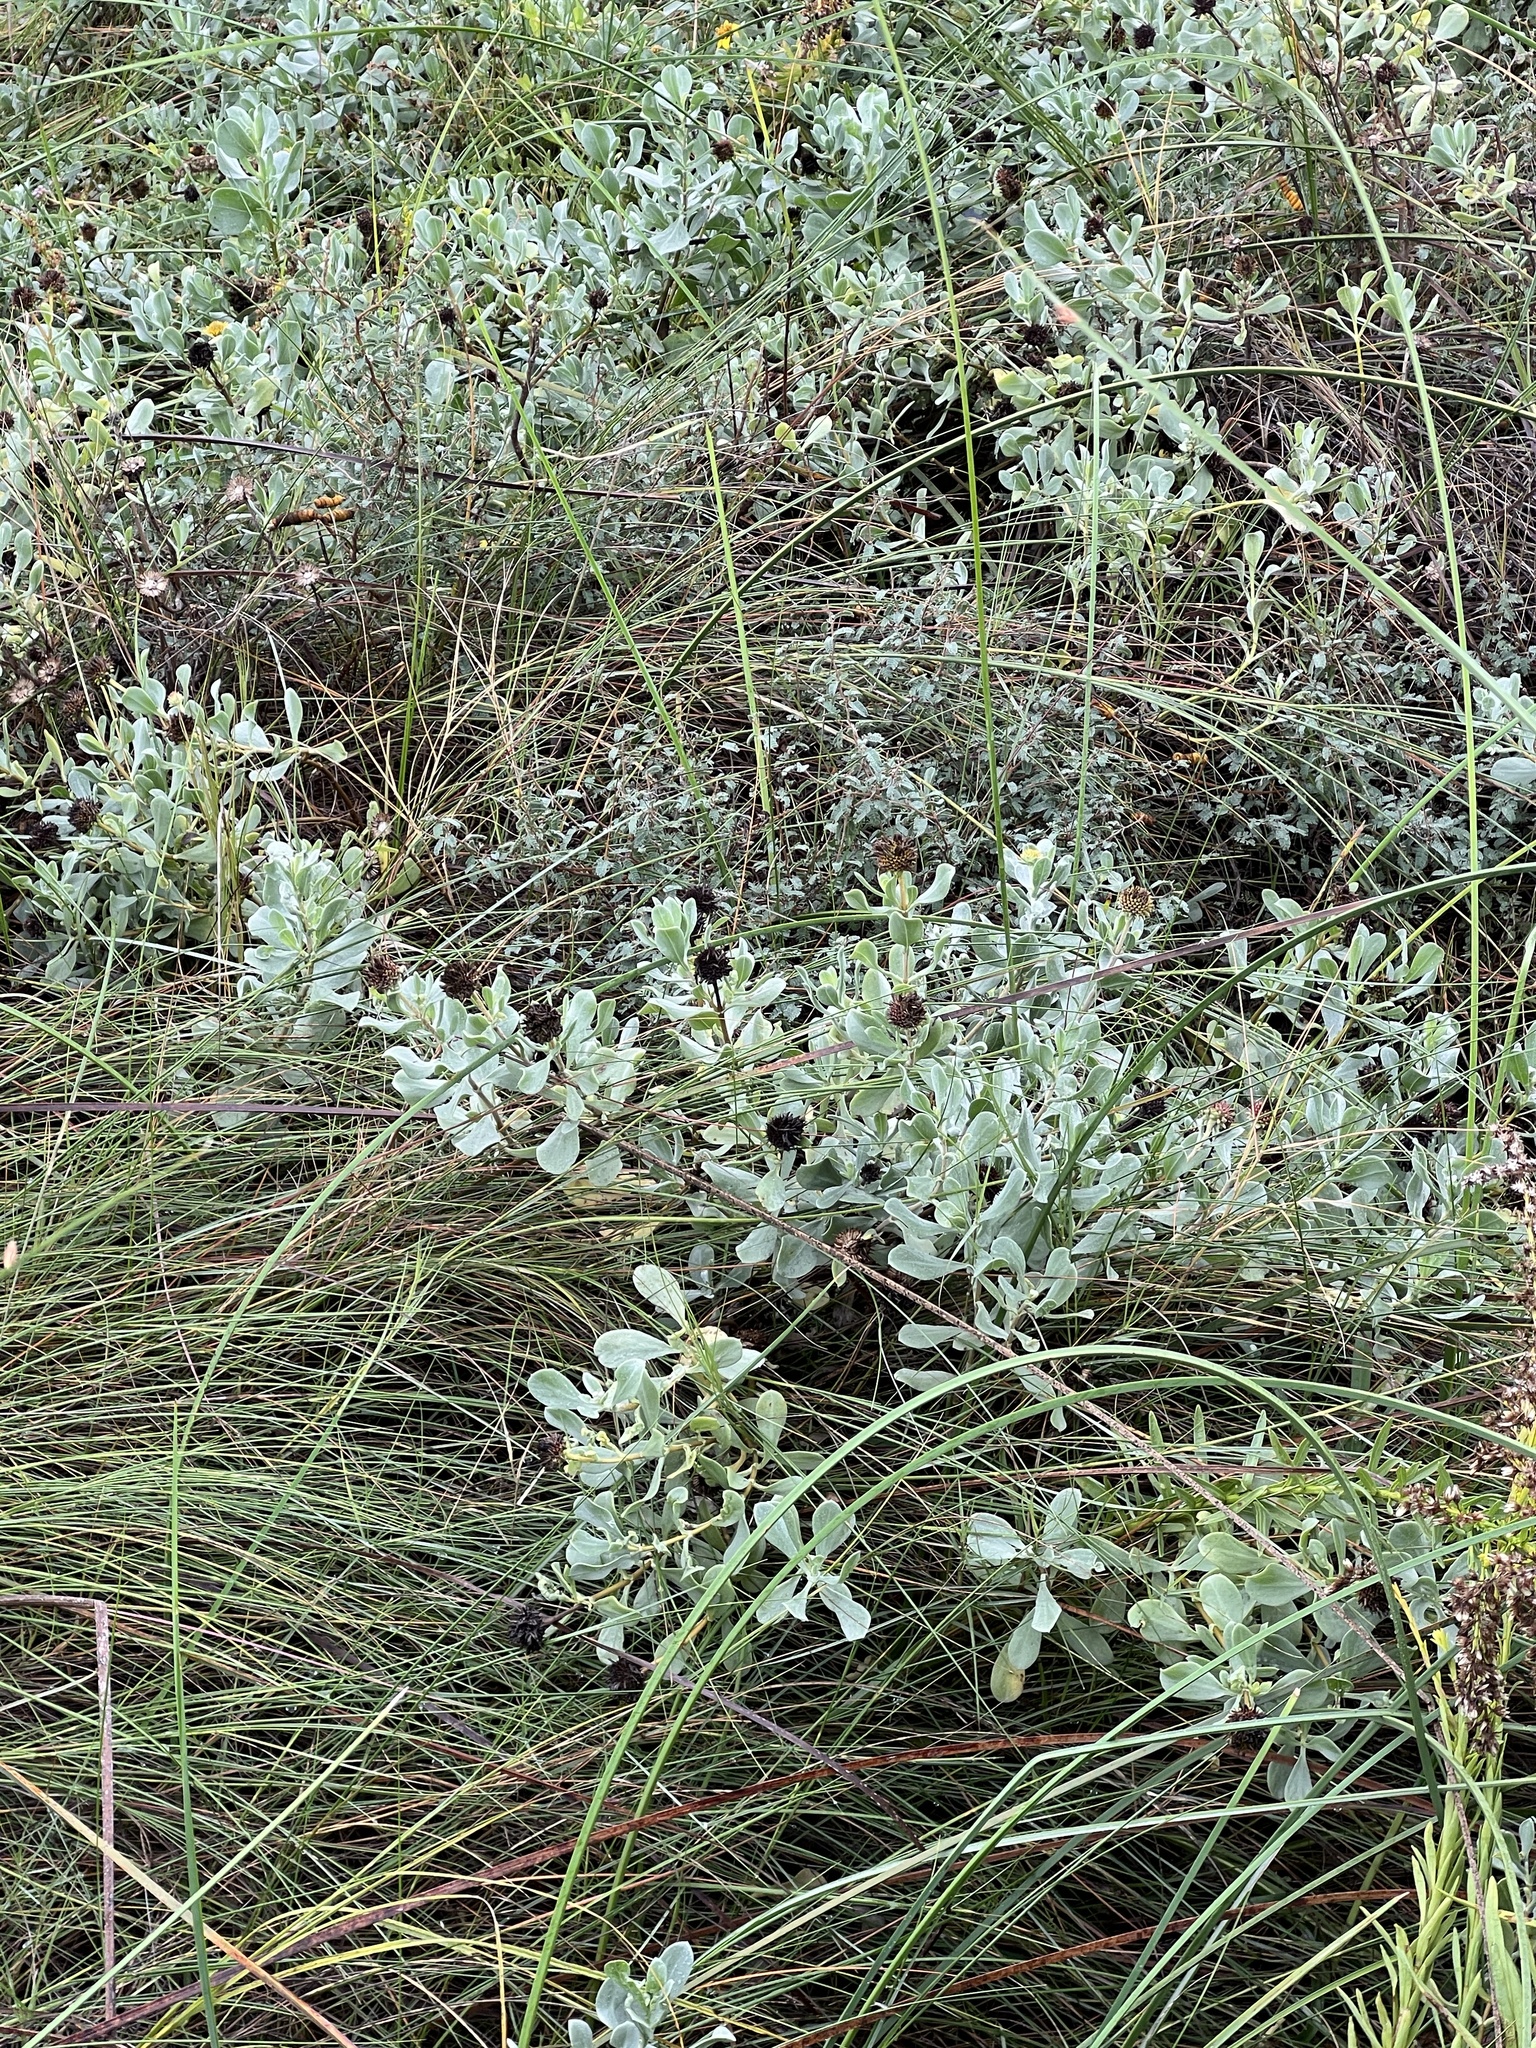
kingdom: Plantae
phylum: Tracheophyta
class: Magnoliopsida
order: Asterales
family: Asteraceae
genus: Borrichia
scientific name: Borrichia frutescens
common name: Sea oxeye
